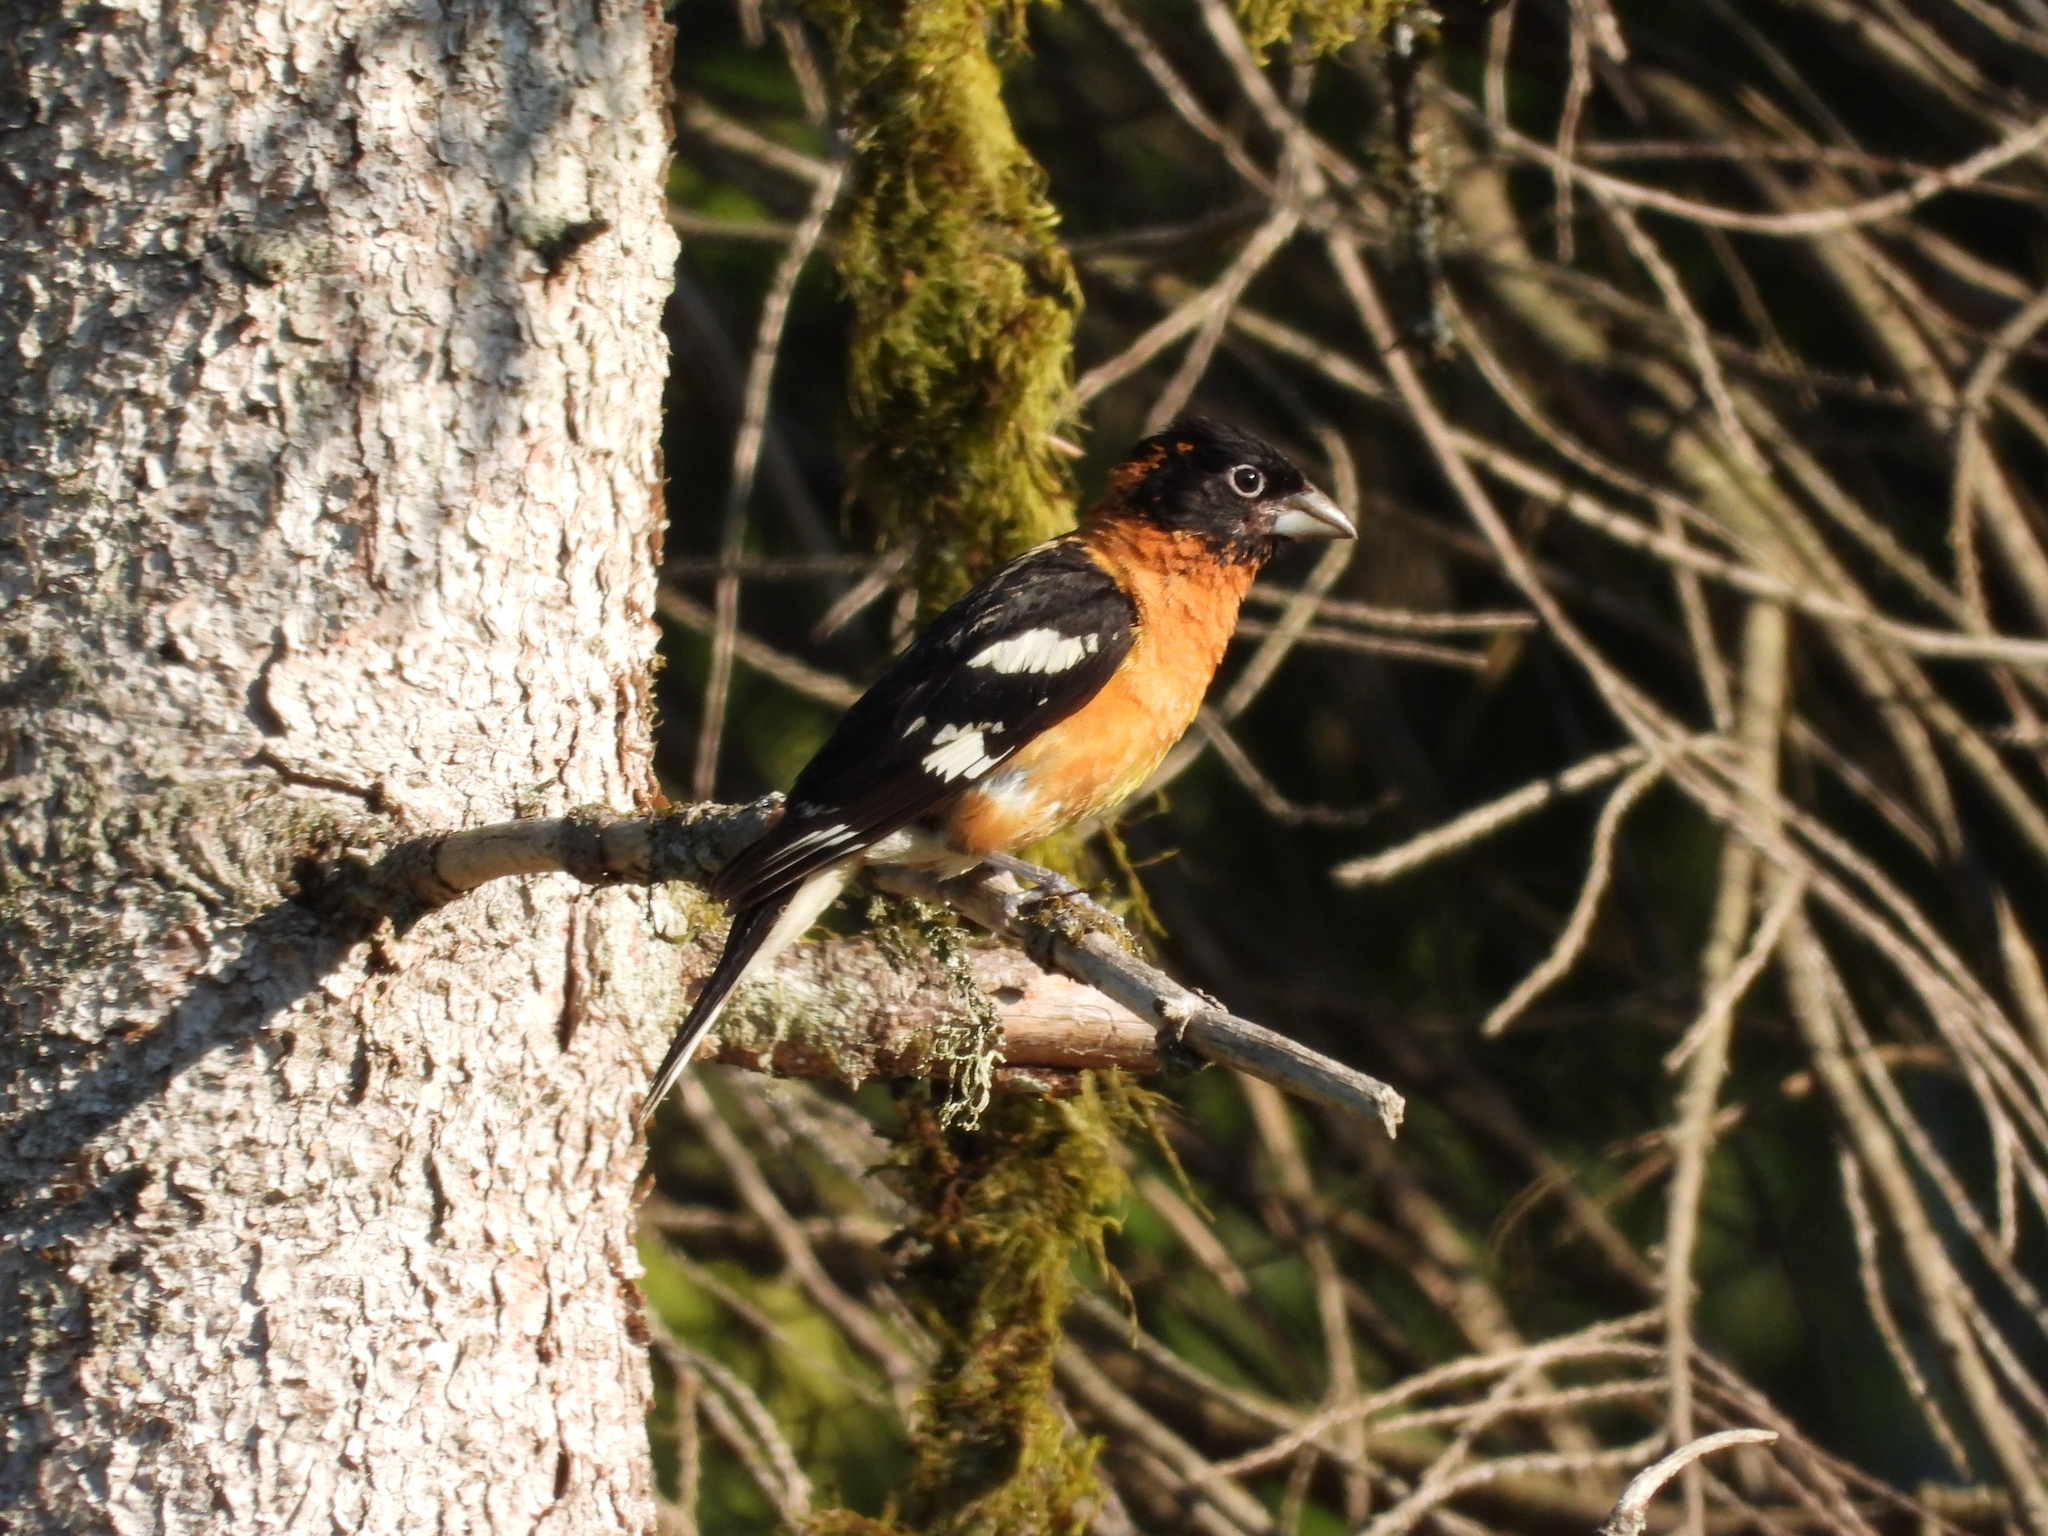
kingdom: Animalia
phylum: Chordata
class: Aves
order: Passeriformes
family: Cardinalidae
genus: Pheucticus
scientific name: Pheucticus melanocephalus
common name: Black-headed grosbeak
